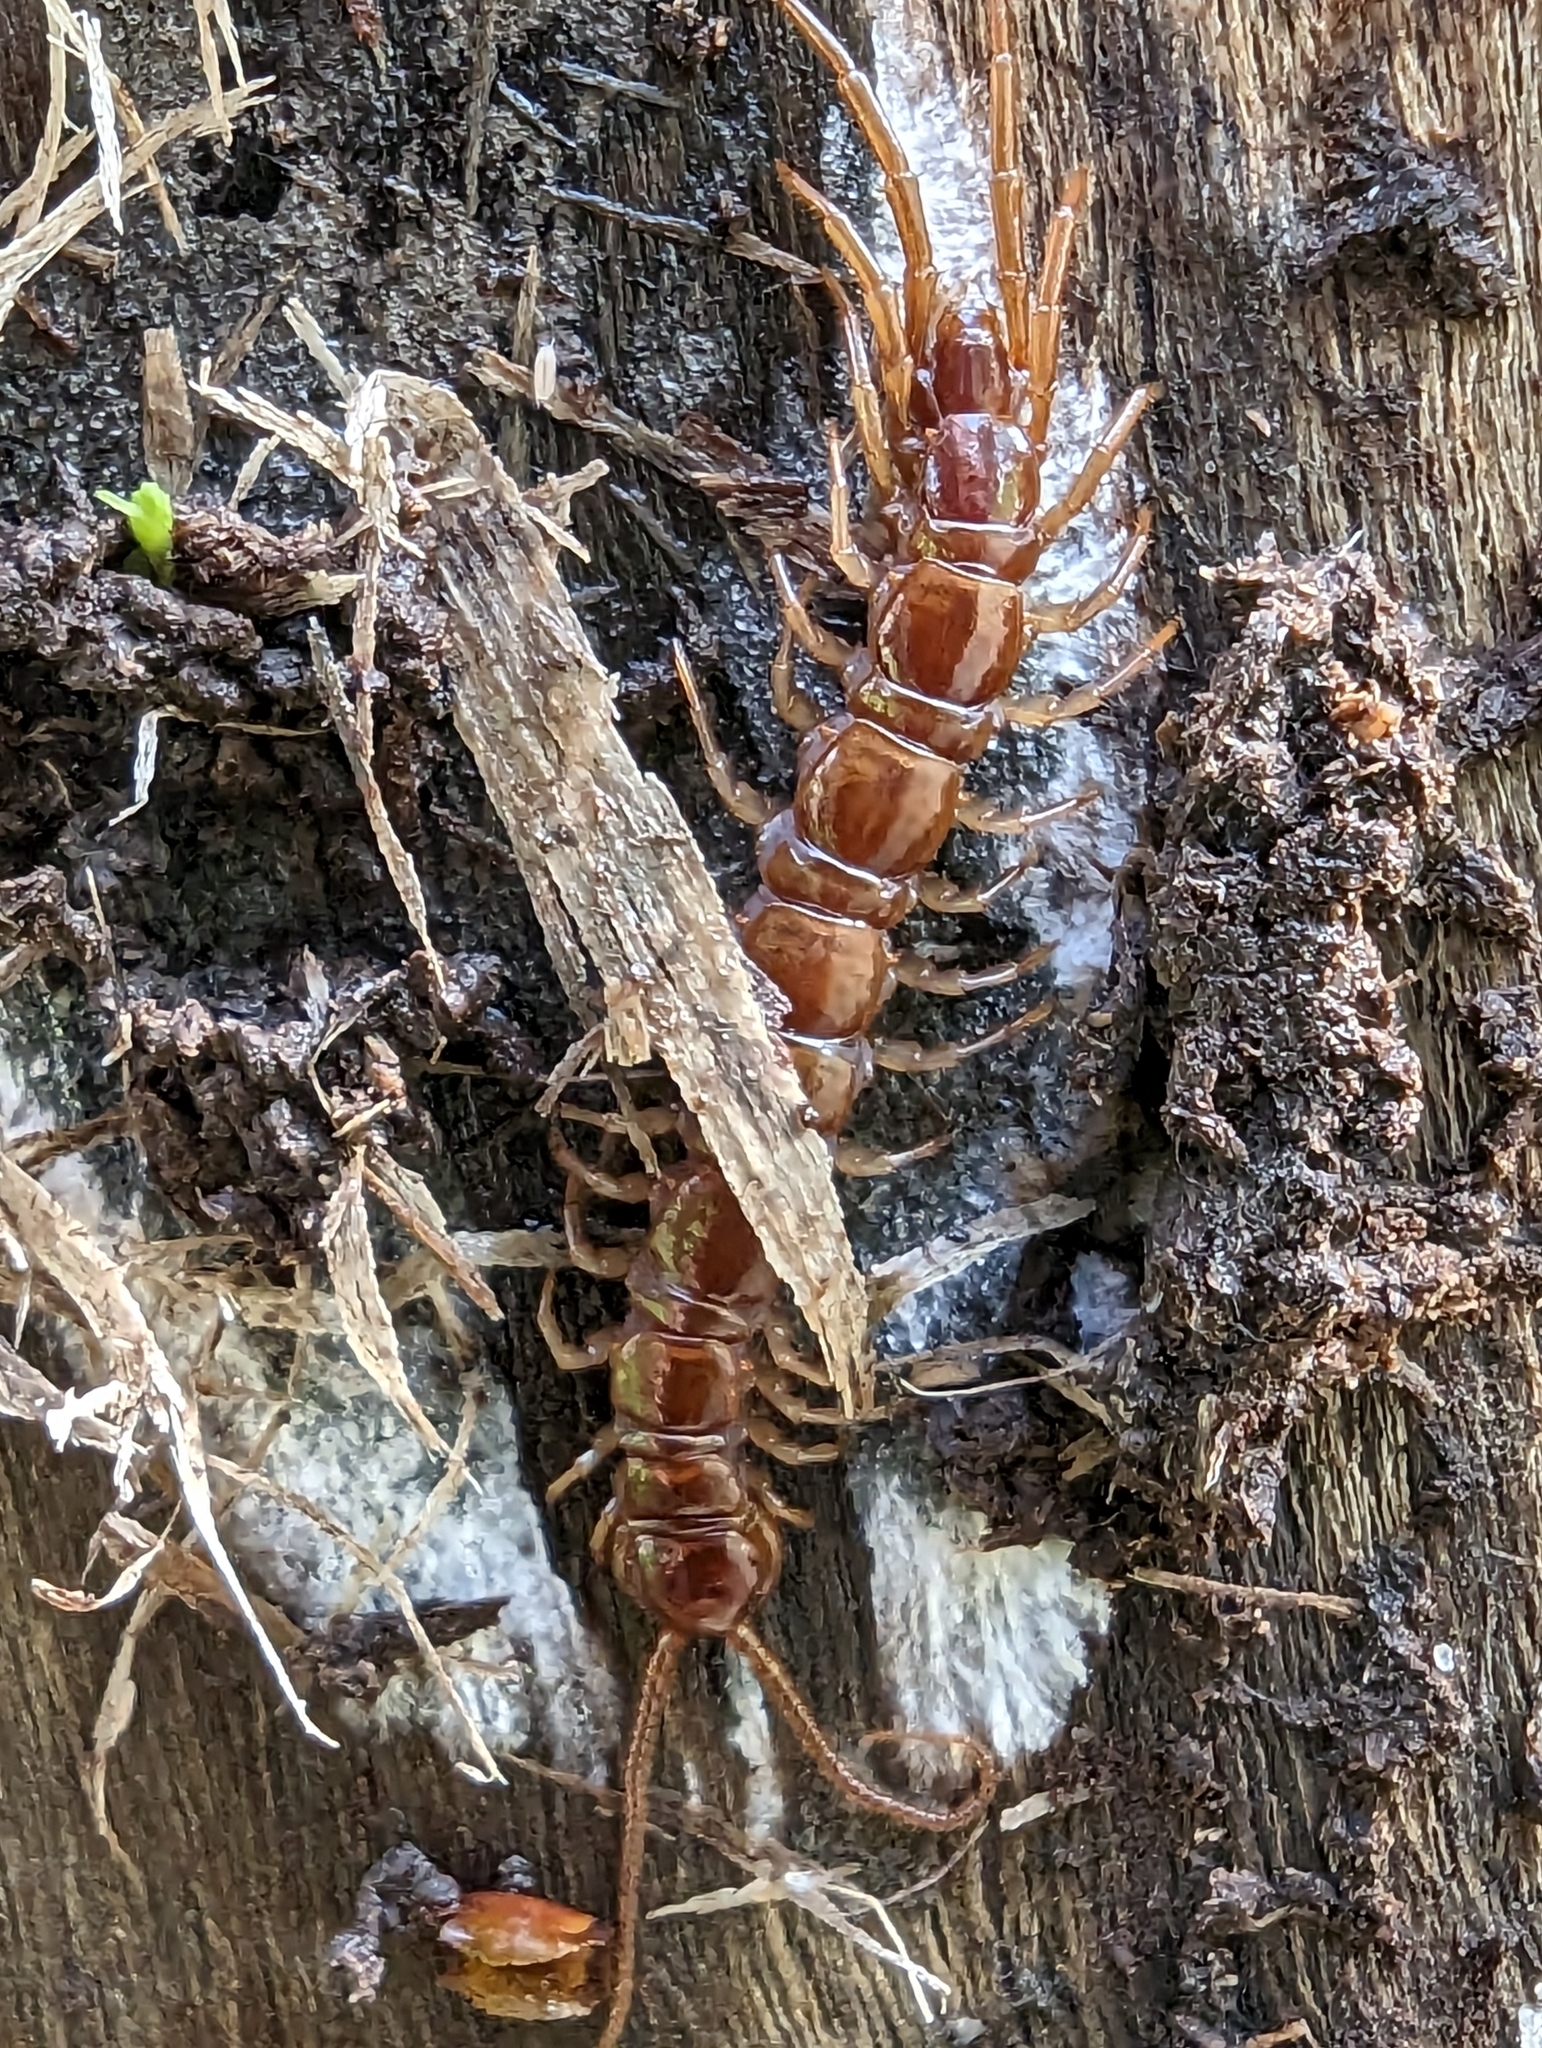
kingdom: Animalia
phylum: Arthropoda
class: Chilopoda
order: Lithobiomorpha
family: Lithobiidae
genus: Lithobius
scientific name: Lithobius forficatus
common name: Centipede
